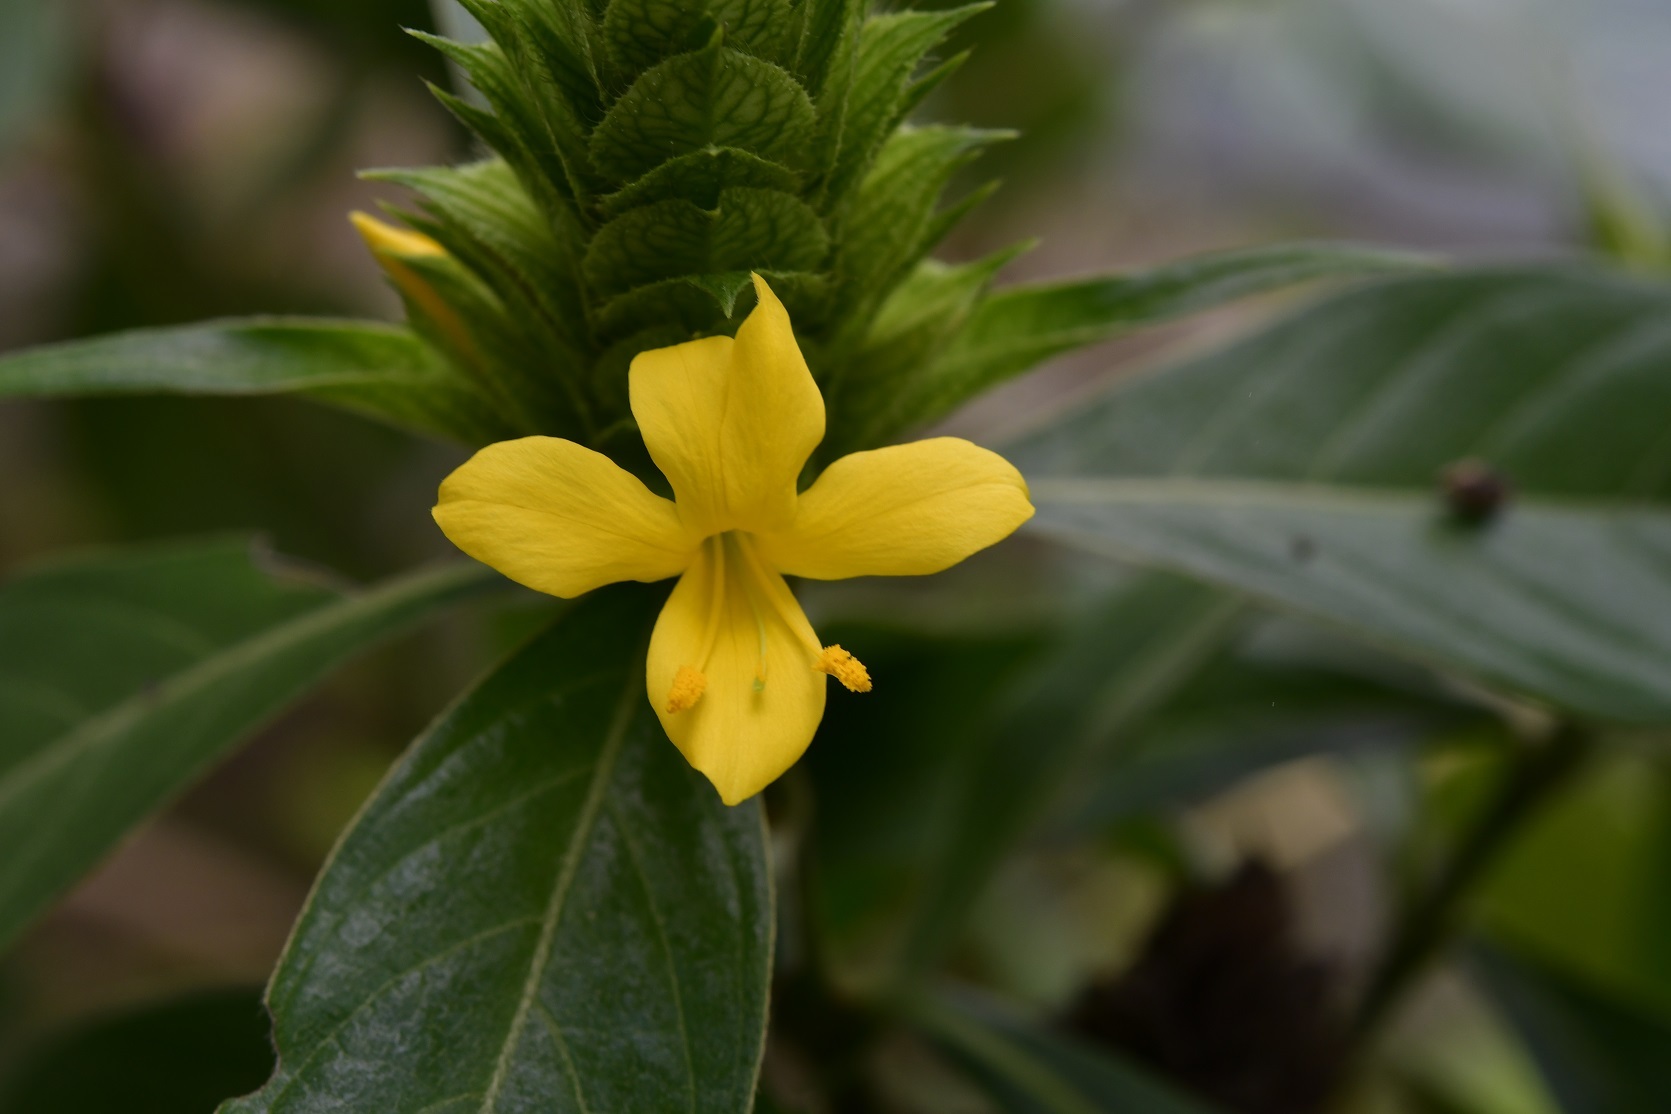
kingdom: Plantae
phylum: Tracheophyta
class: Magnoliopsida
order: Lamiales
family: Acanthaceae
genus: Barleria
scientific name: Barleria oenotheroides
